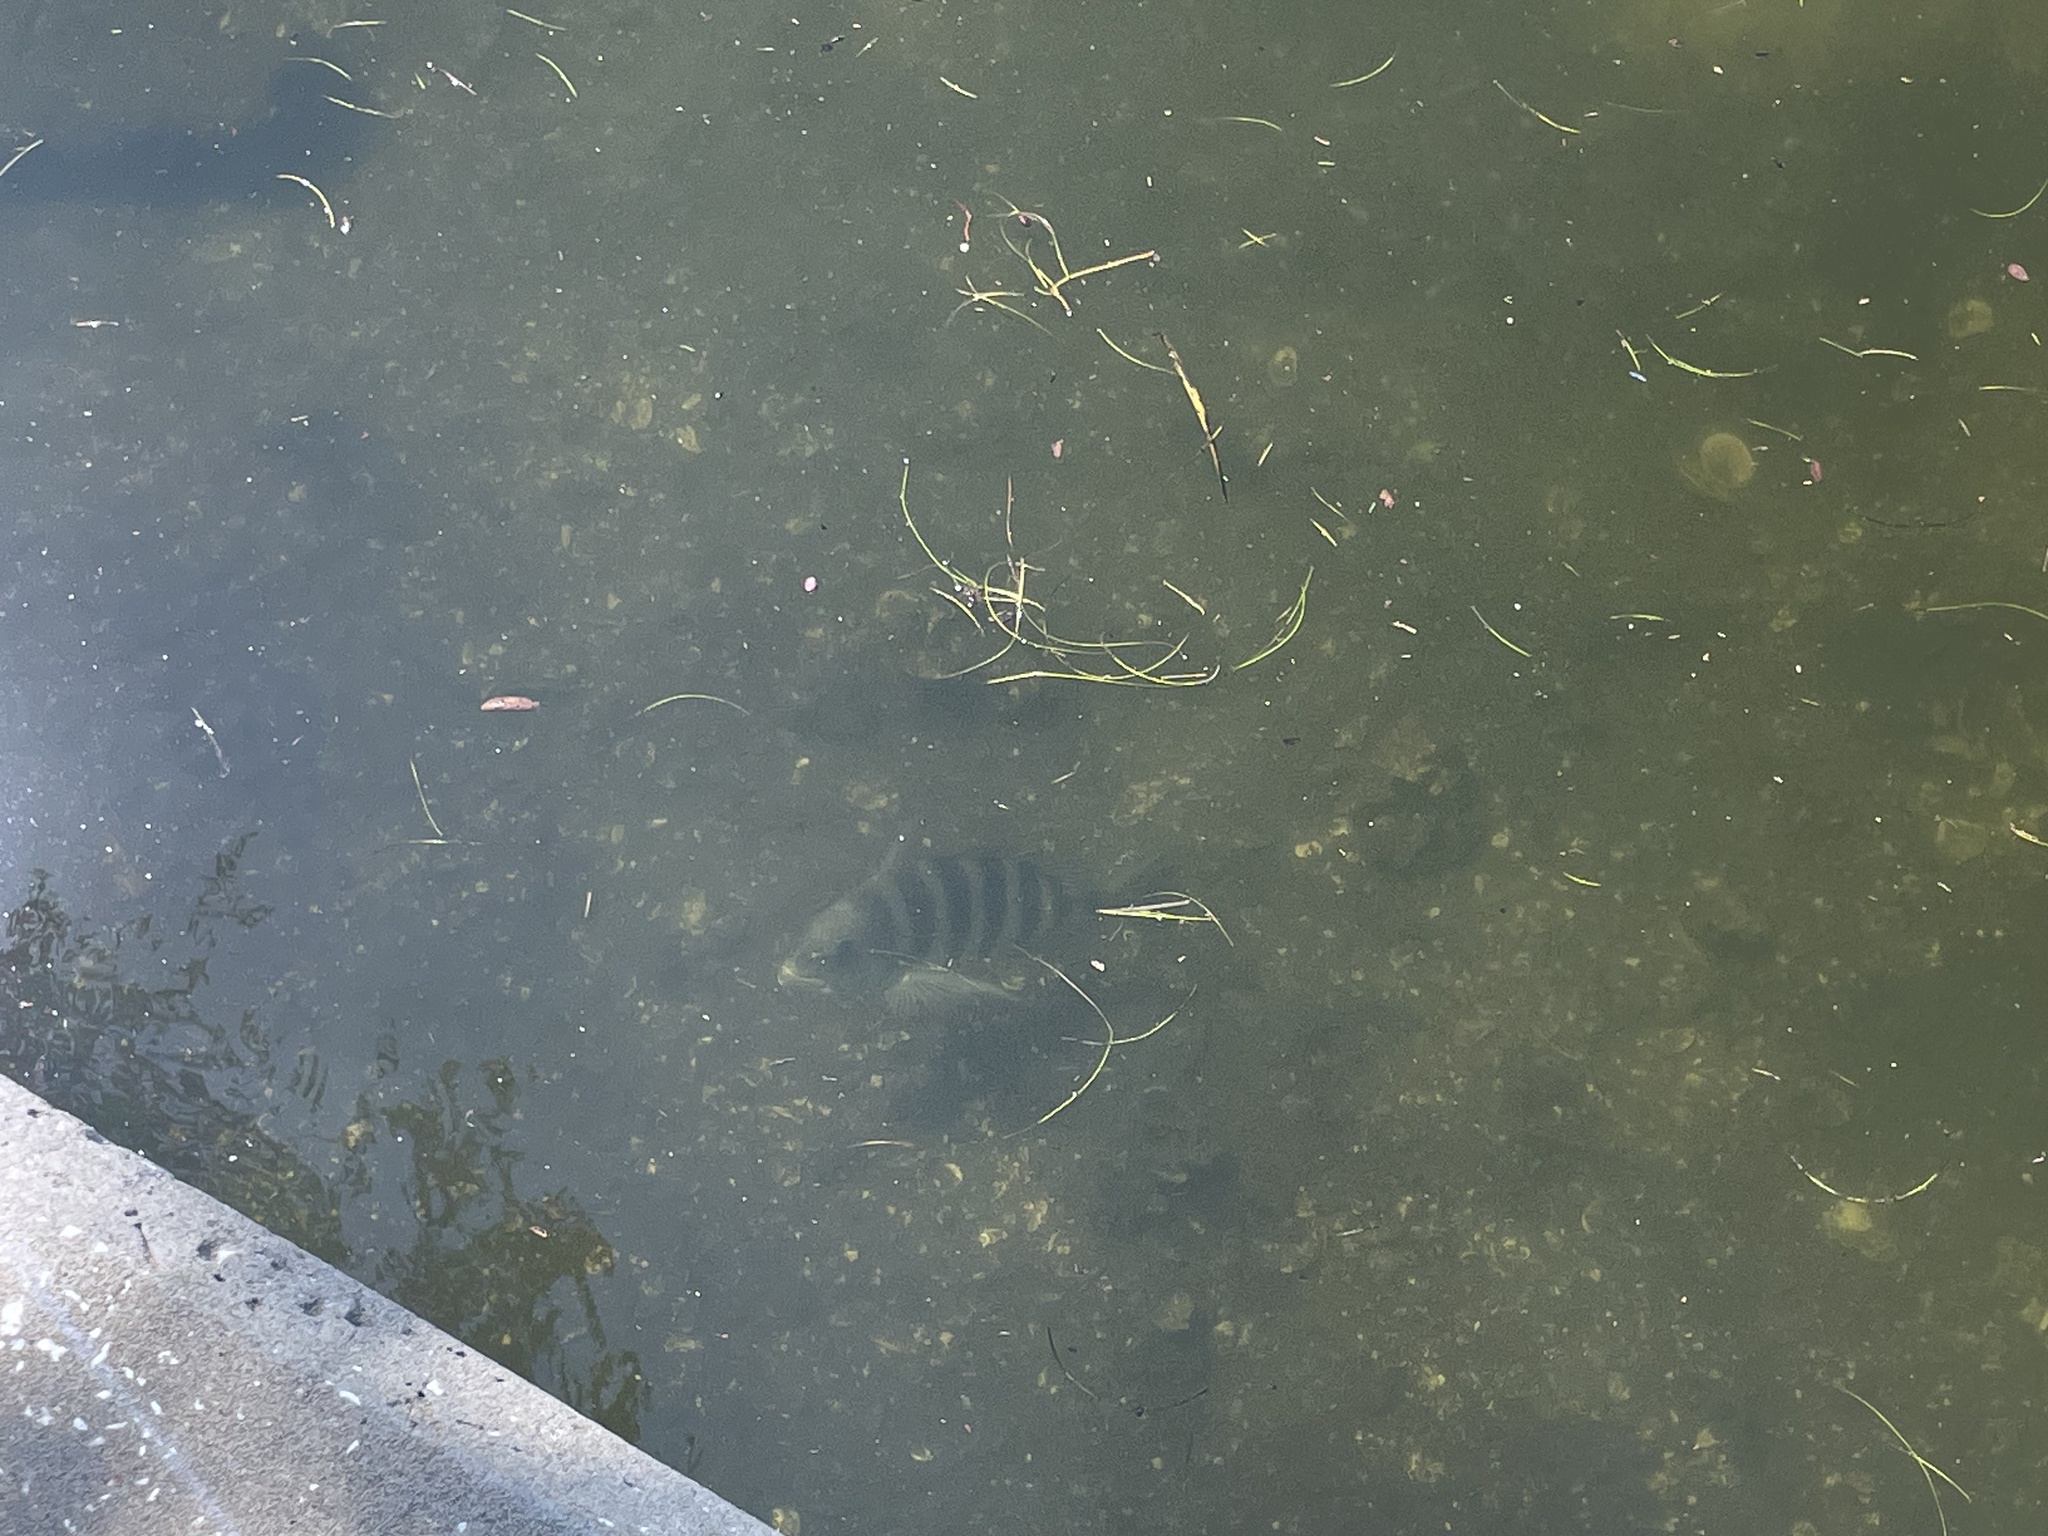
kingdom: Animalia
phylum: Chordata
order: Perciformes
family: Sparidae
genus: Archosargus
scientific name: Archosargus probatocephalus
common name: Sheepshead
